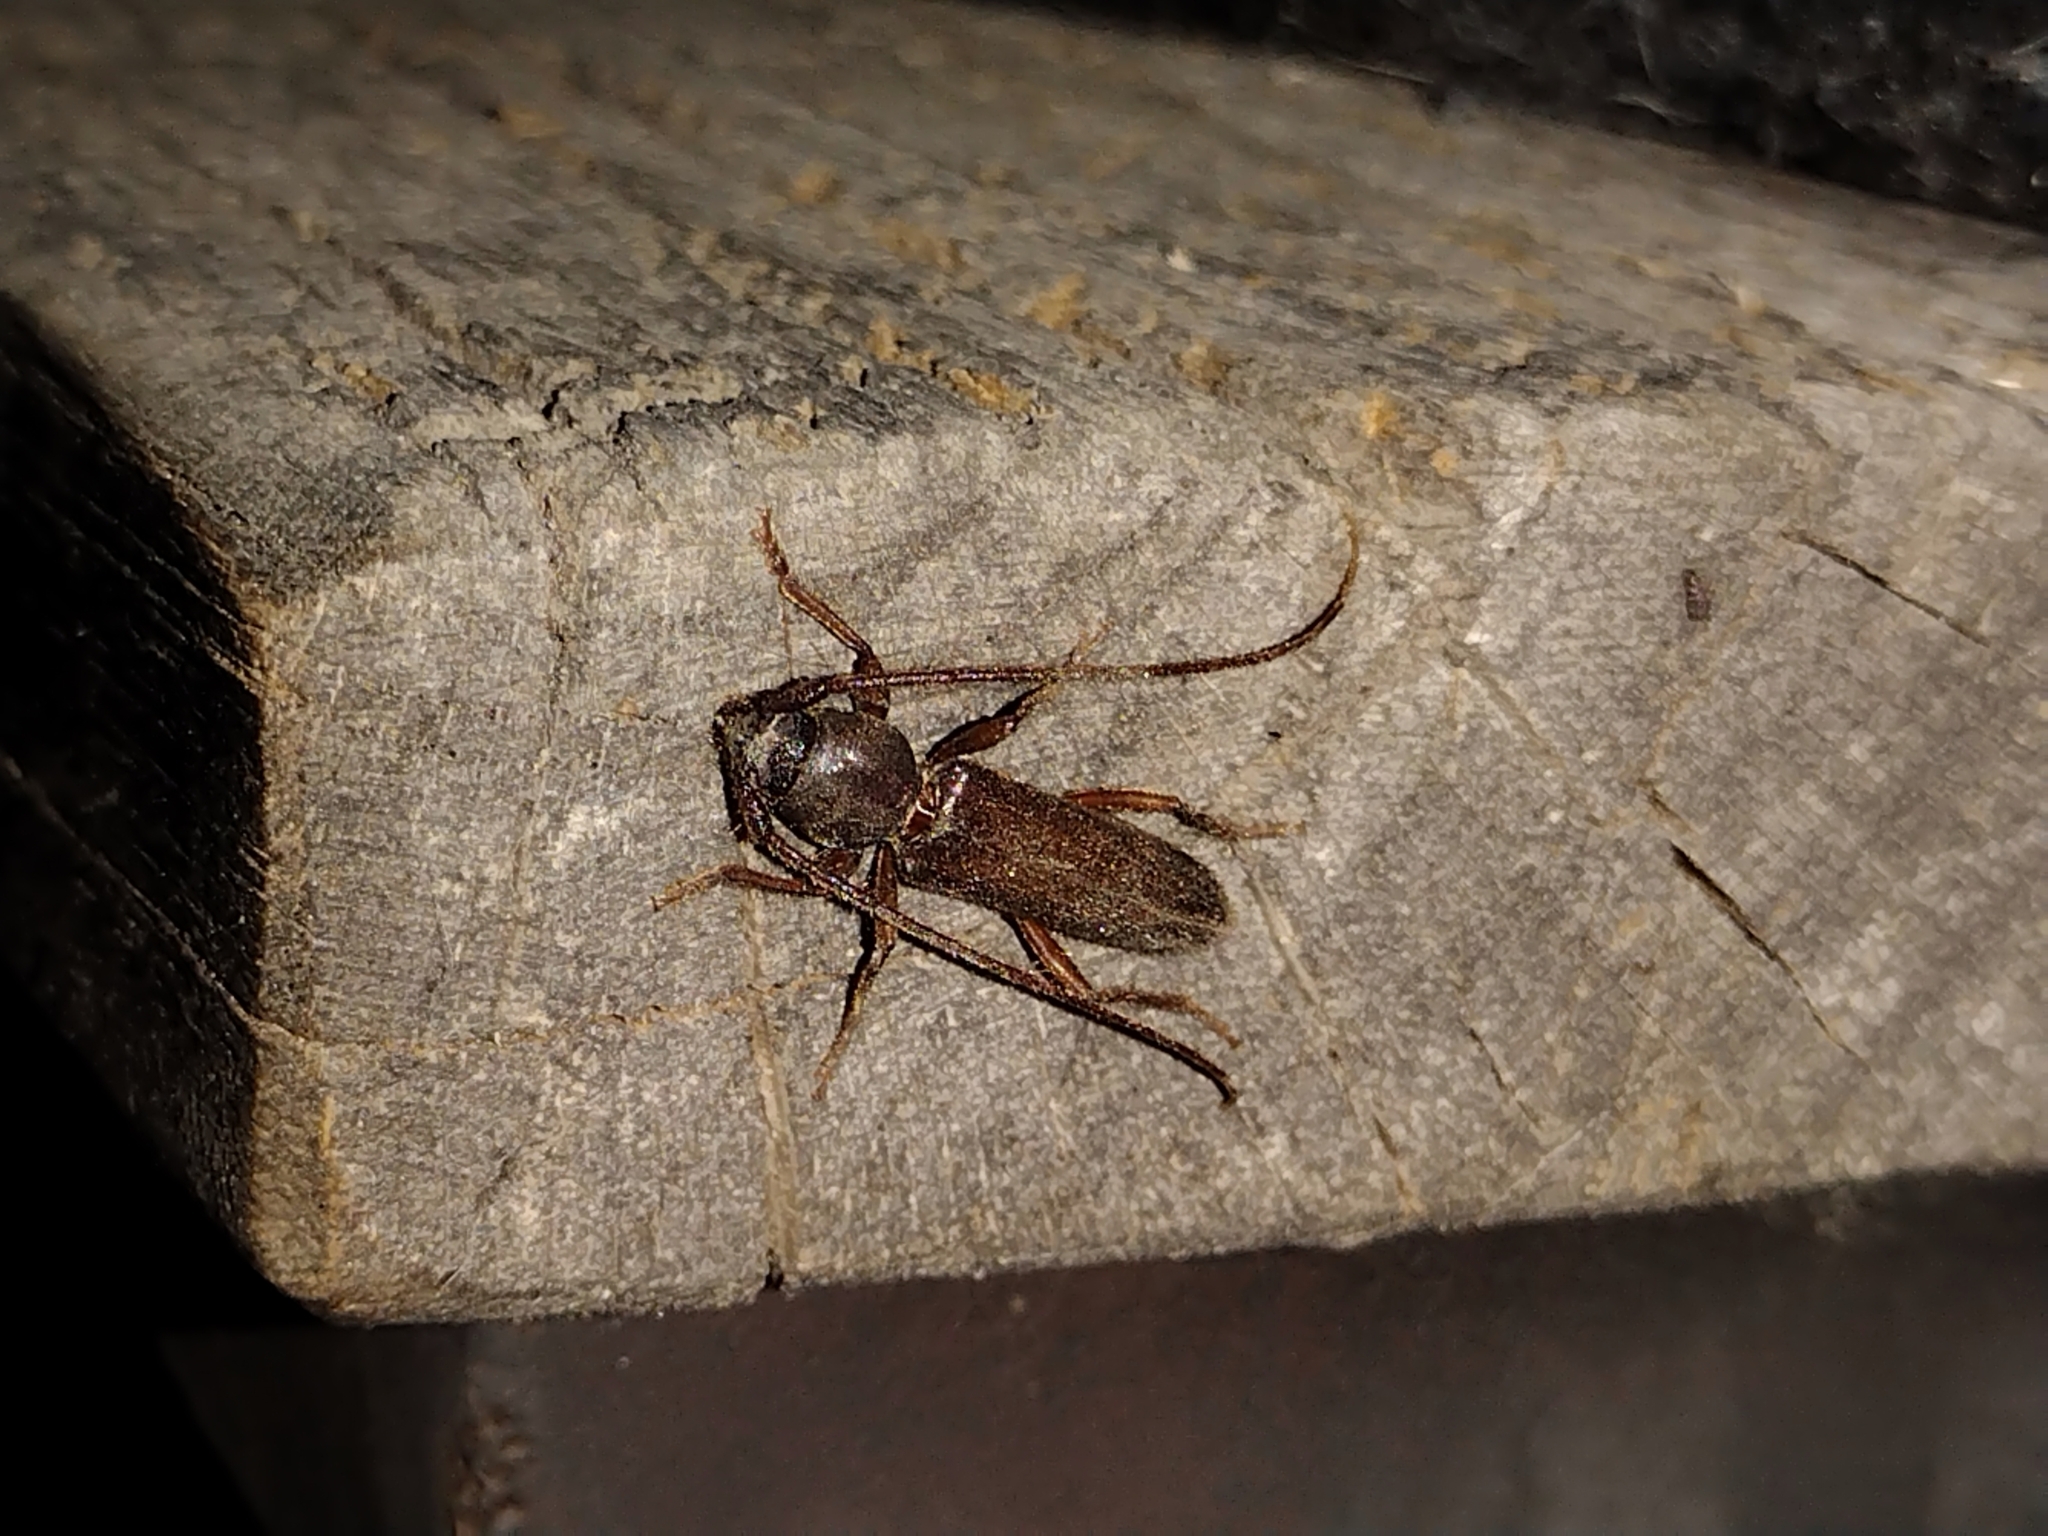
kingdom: Animalia
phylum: Arthropoda
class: Insecta
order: Coleoptera
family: Cerambycidae
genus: Paranoplium
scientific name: Paranoplium gracile
